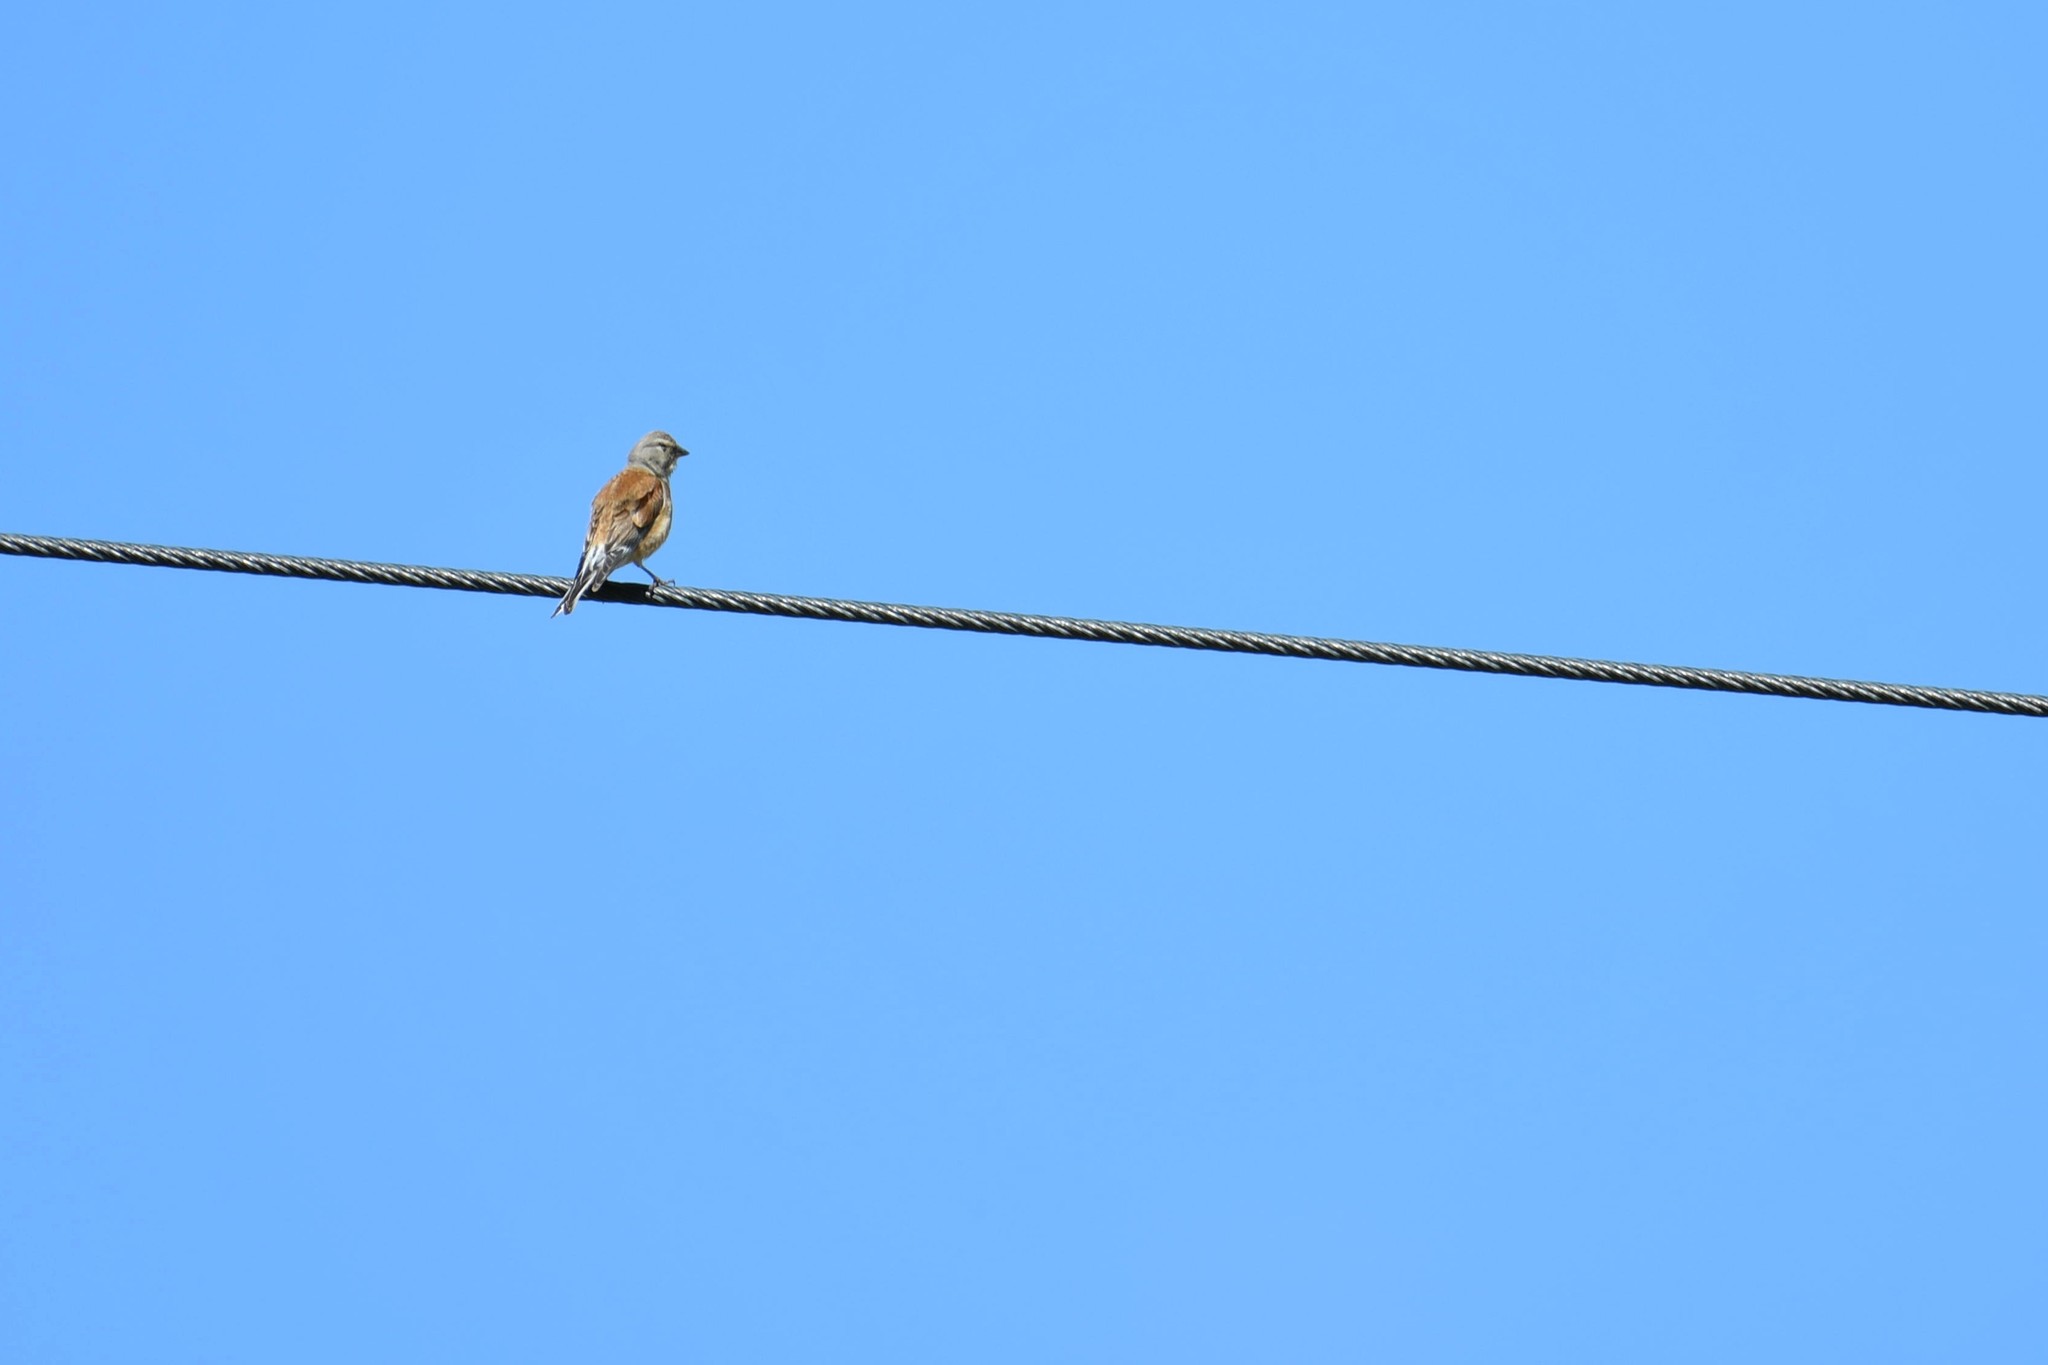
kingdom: Animalia
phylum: Chordata
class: Aves
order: Passeriformes
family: Fringillidae
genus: Linaria
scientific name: Linaria cannabina
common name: Common linnet
